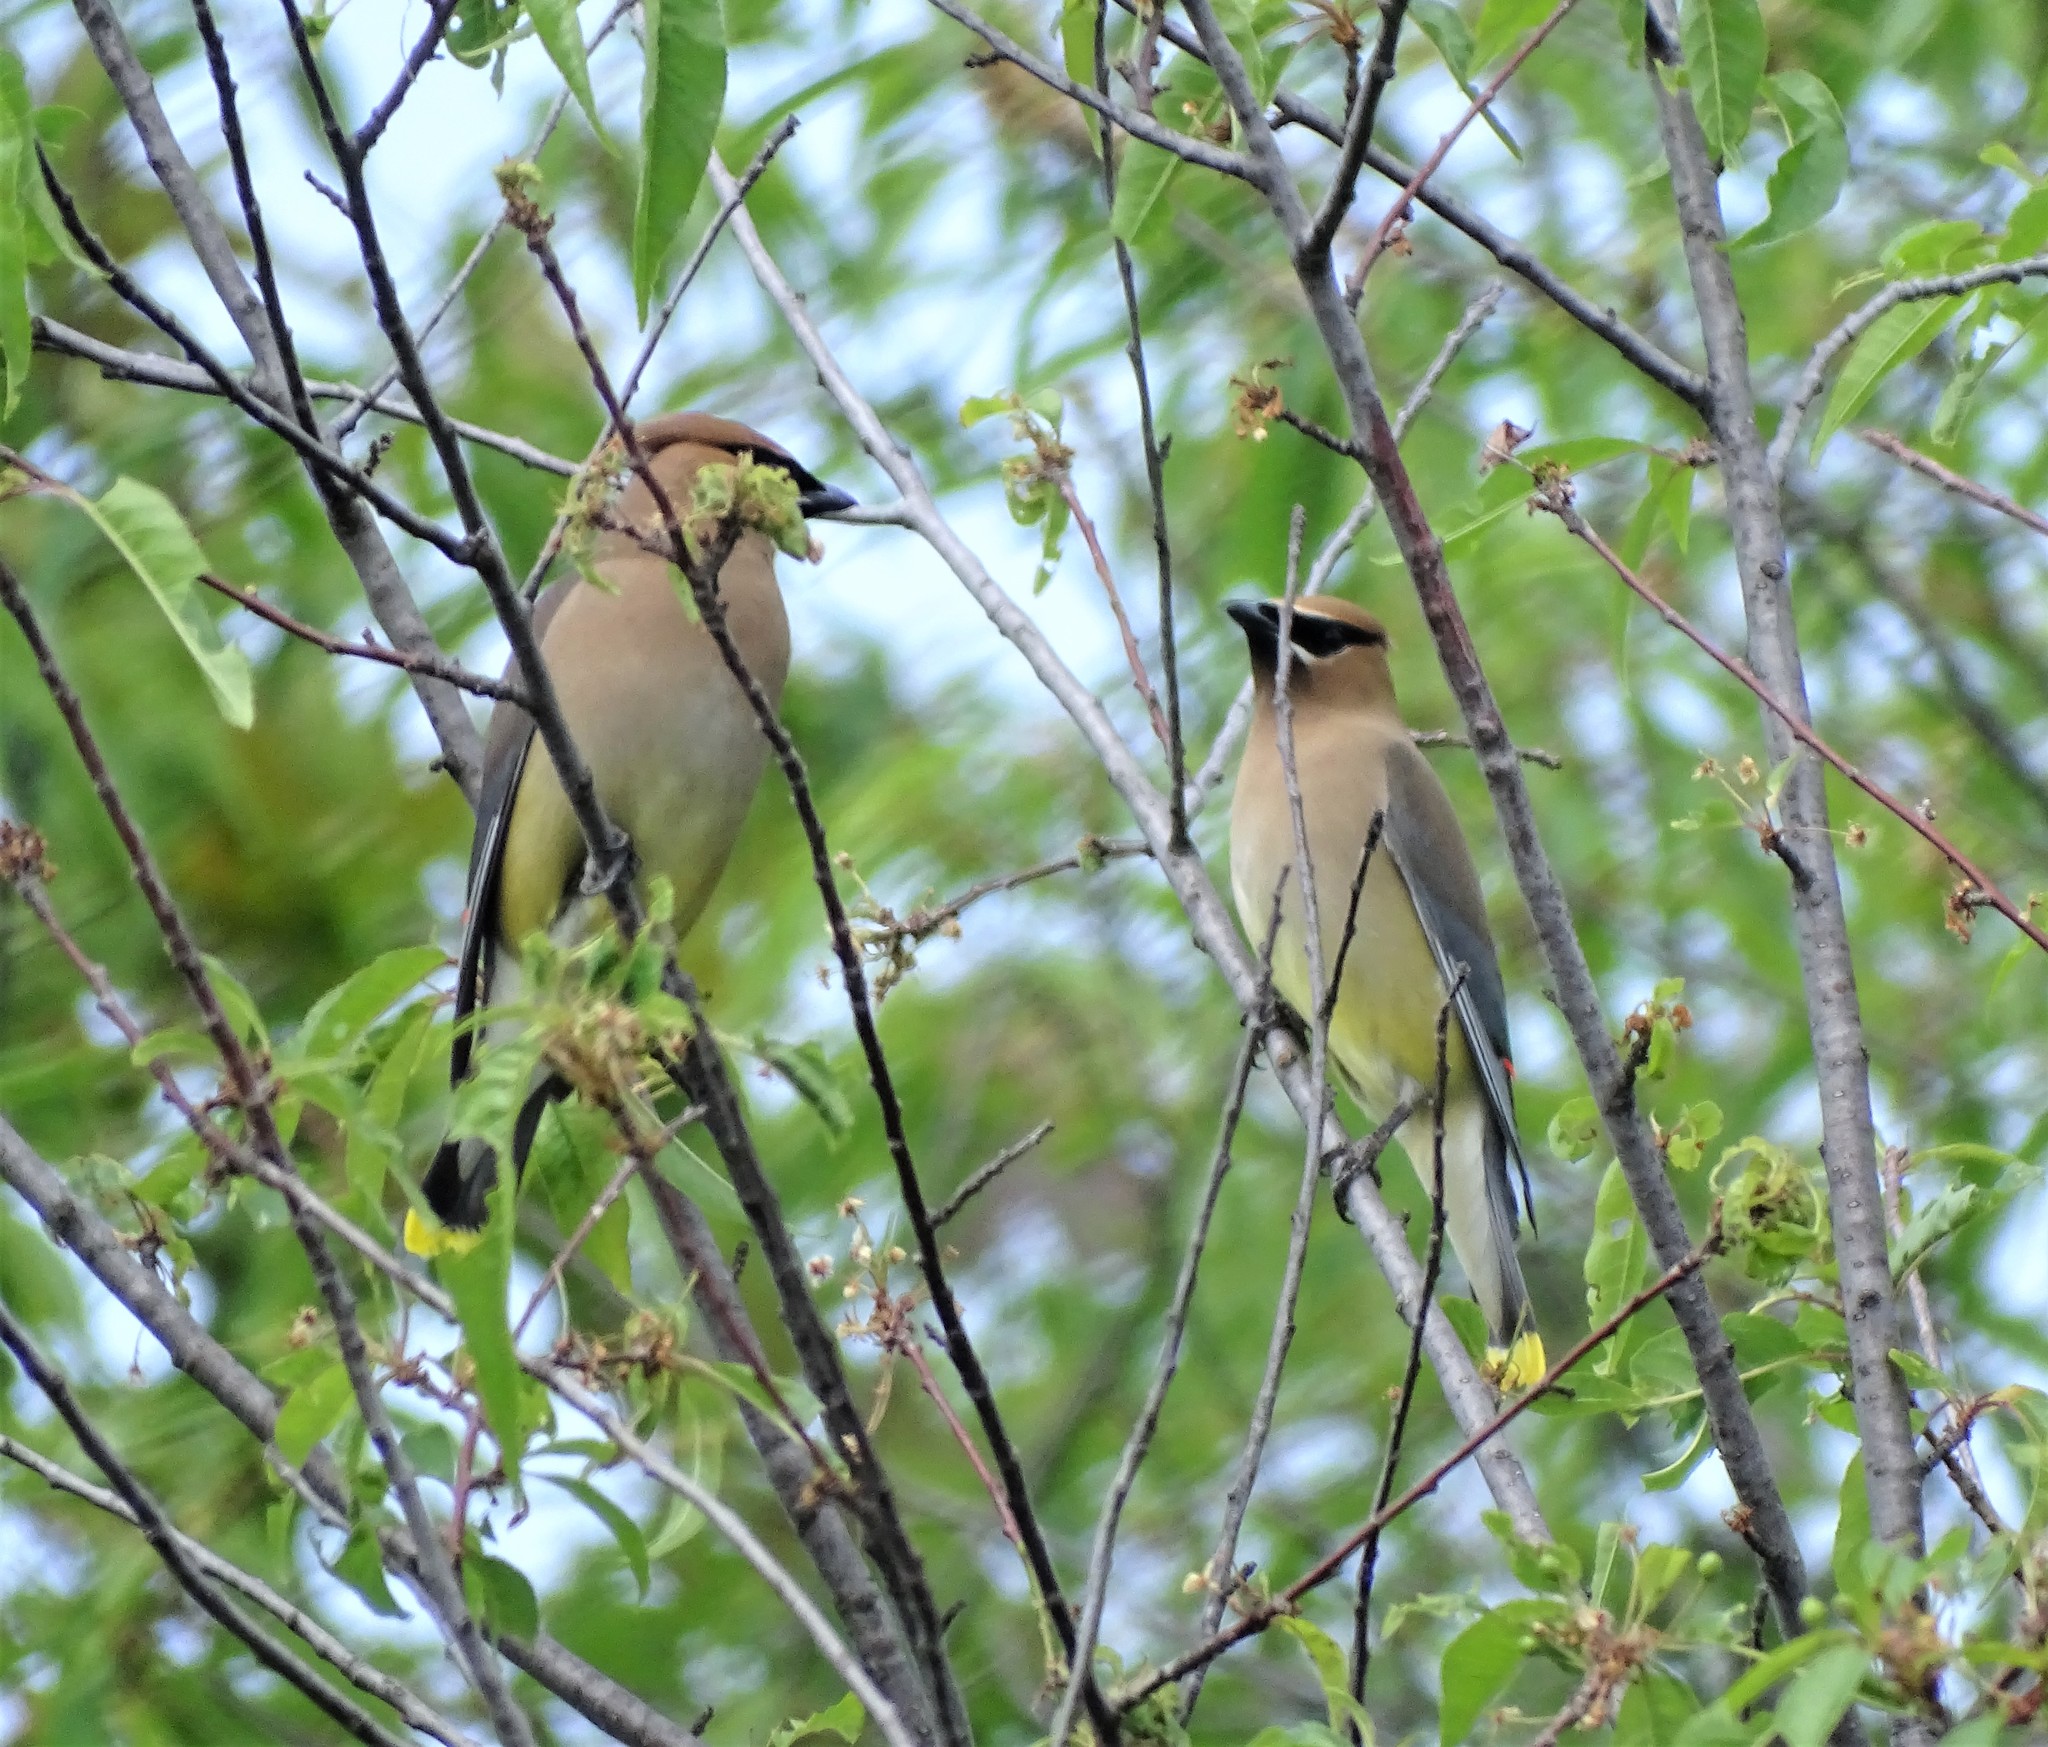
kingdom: Animalia
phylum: Chordata
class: Aves
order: Passeriformes
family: Bombycillidae
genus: Bombycilla
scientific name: Bombycilla cedrorum
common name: Cedar waxwing
